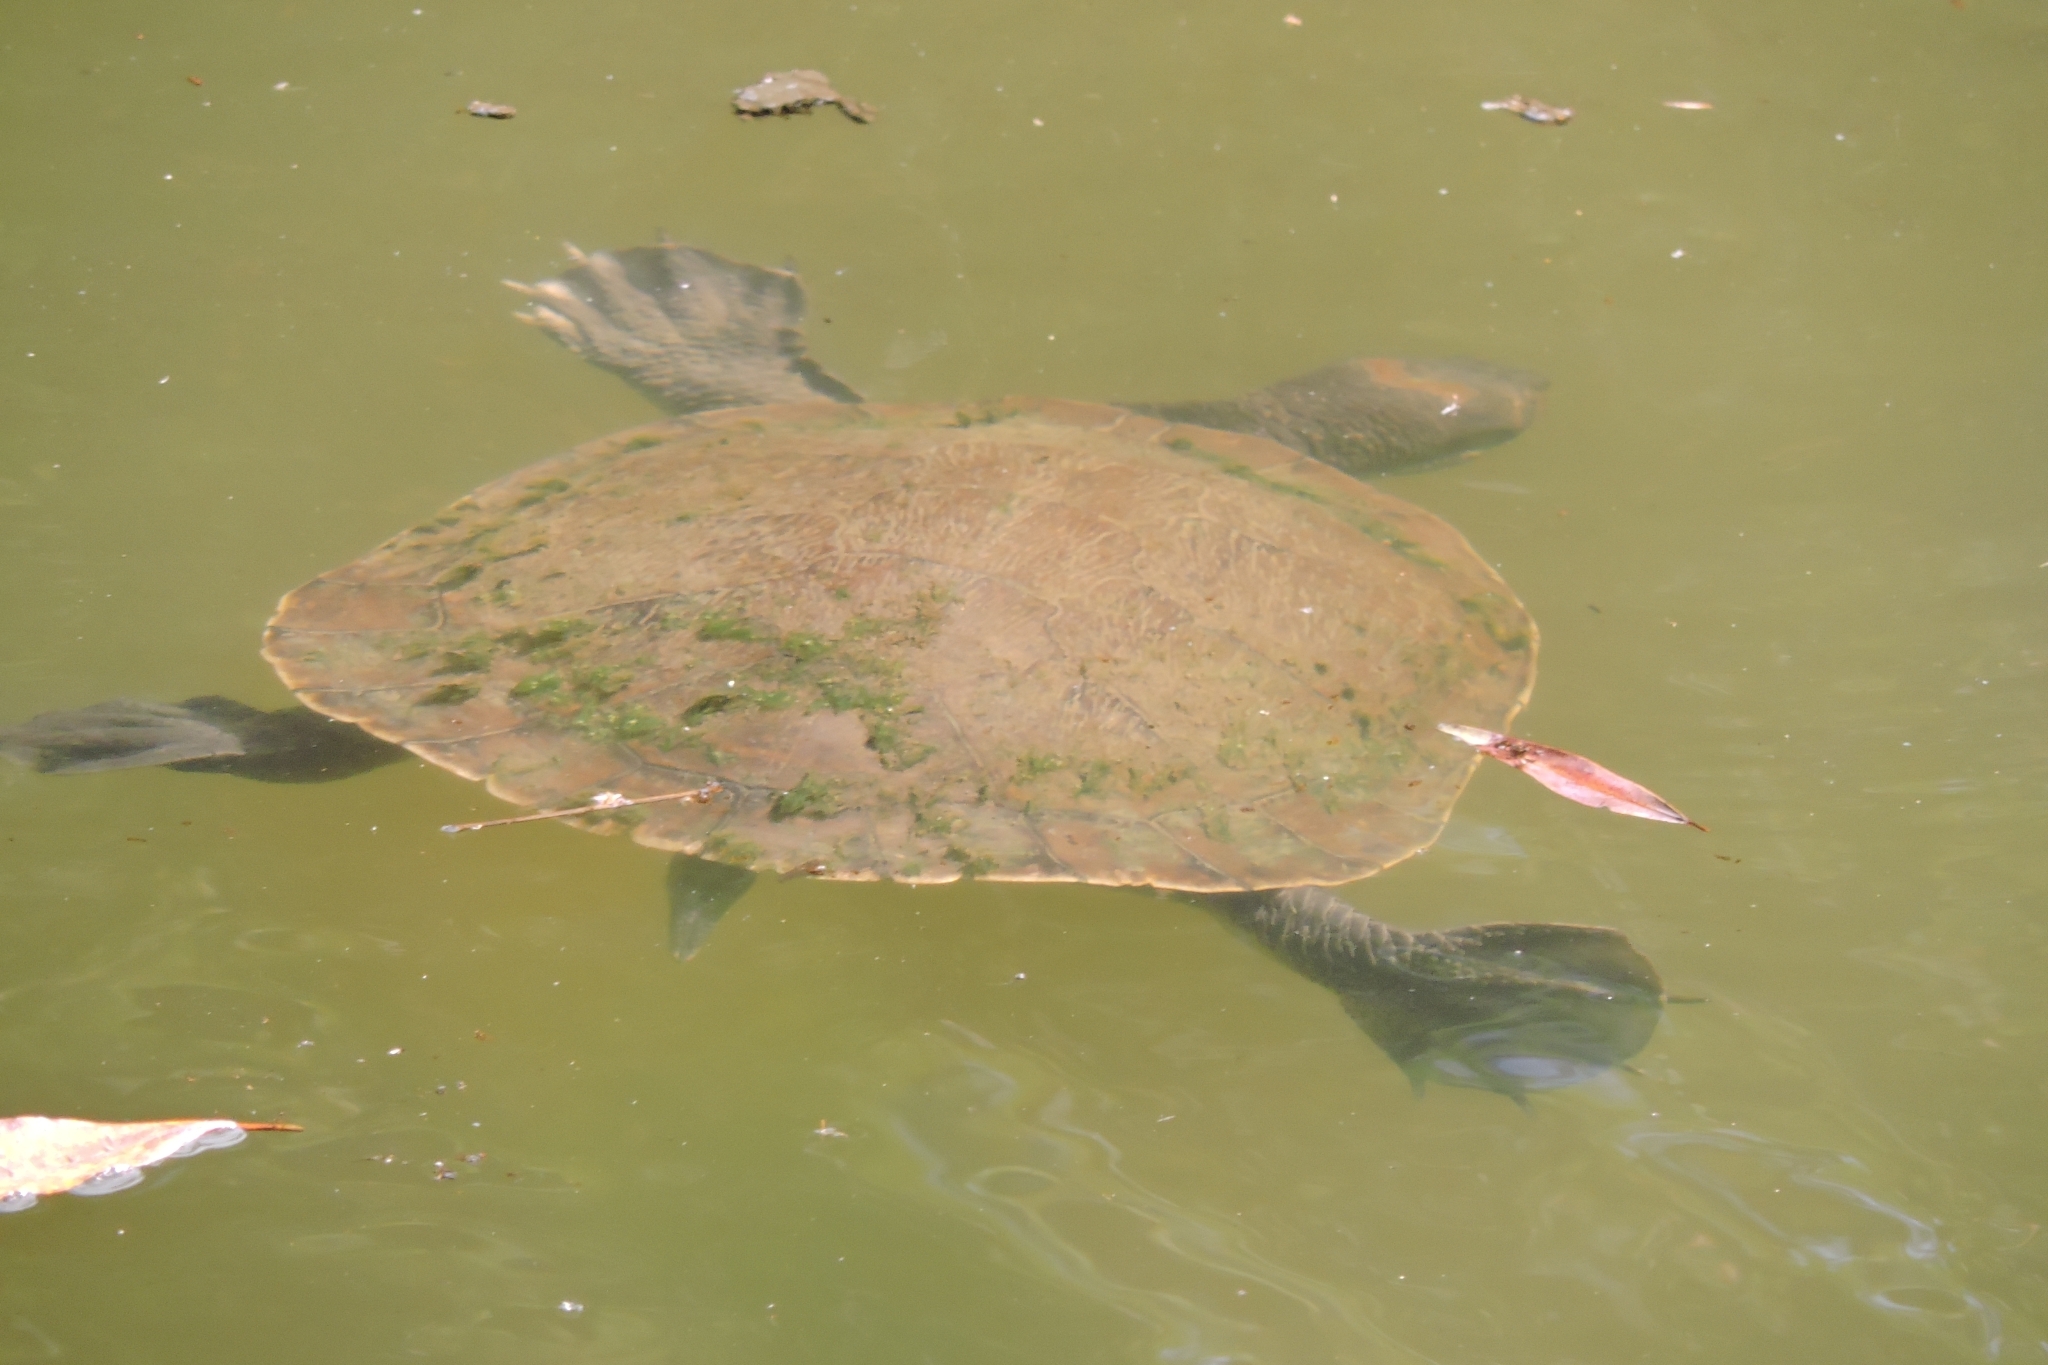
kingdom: Animalia
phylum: Chordata
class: Testudines
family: Chelidae
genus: Emydura
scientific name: Emydura macquarii
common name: Murray river turtle
